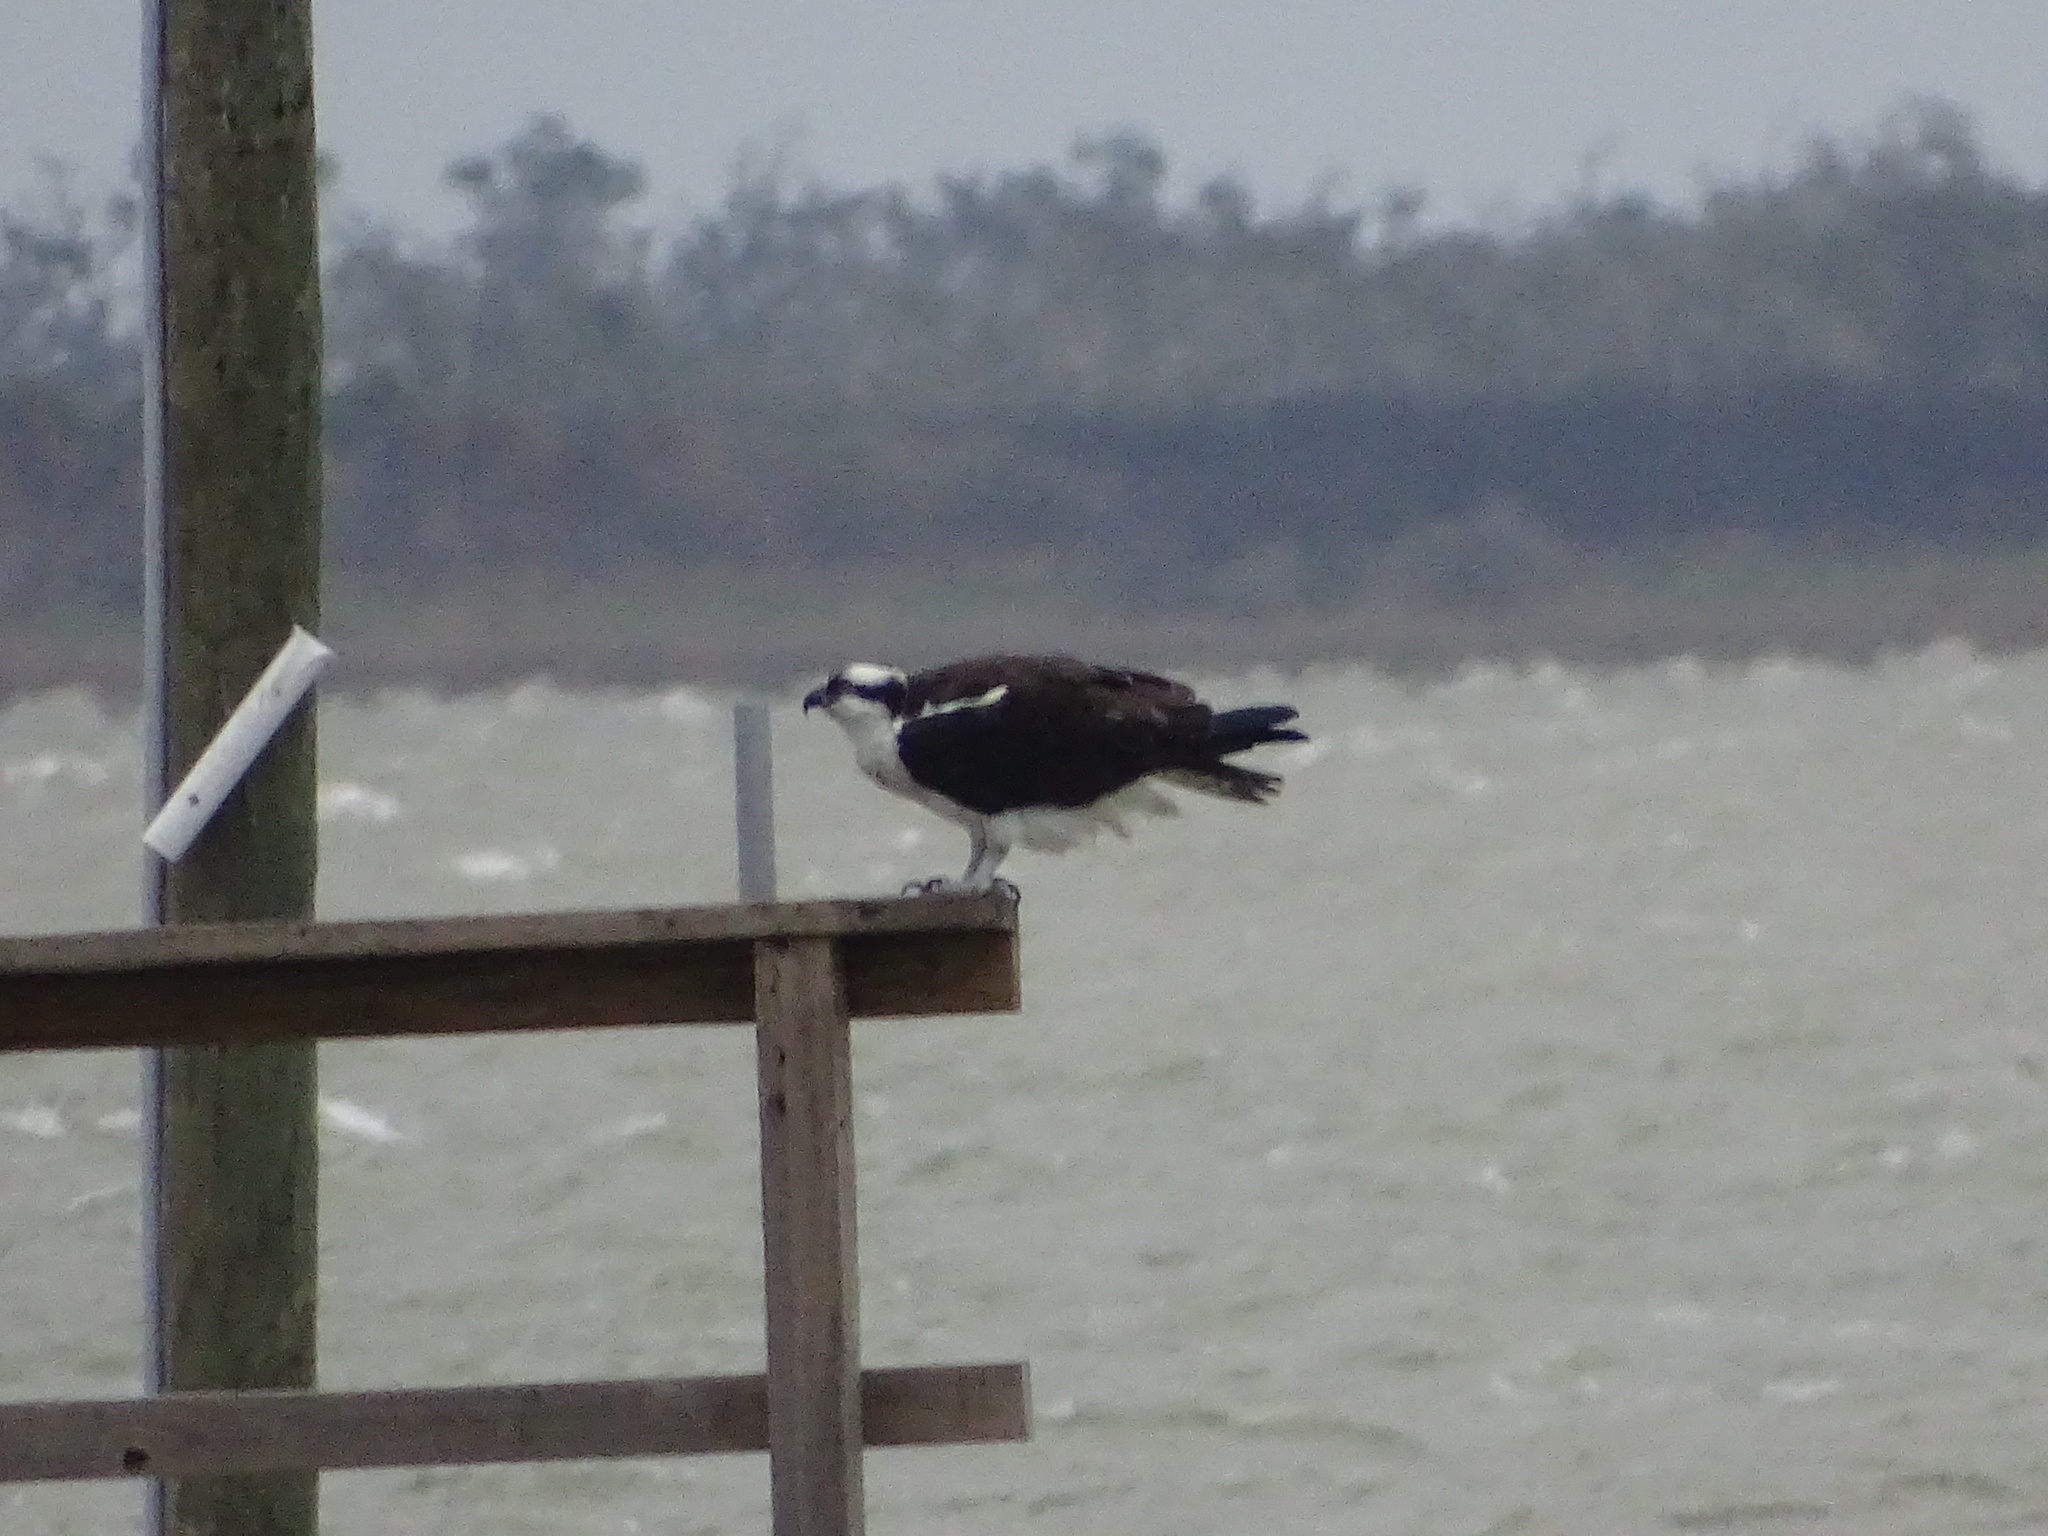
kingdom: Animalia
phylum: Chordata
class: Aves
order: Accipitriformes
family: Pandionidae
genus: Pandion
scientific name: Pandion haliaetus
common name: Osprey
